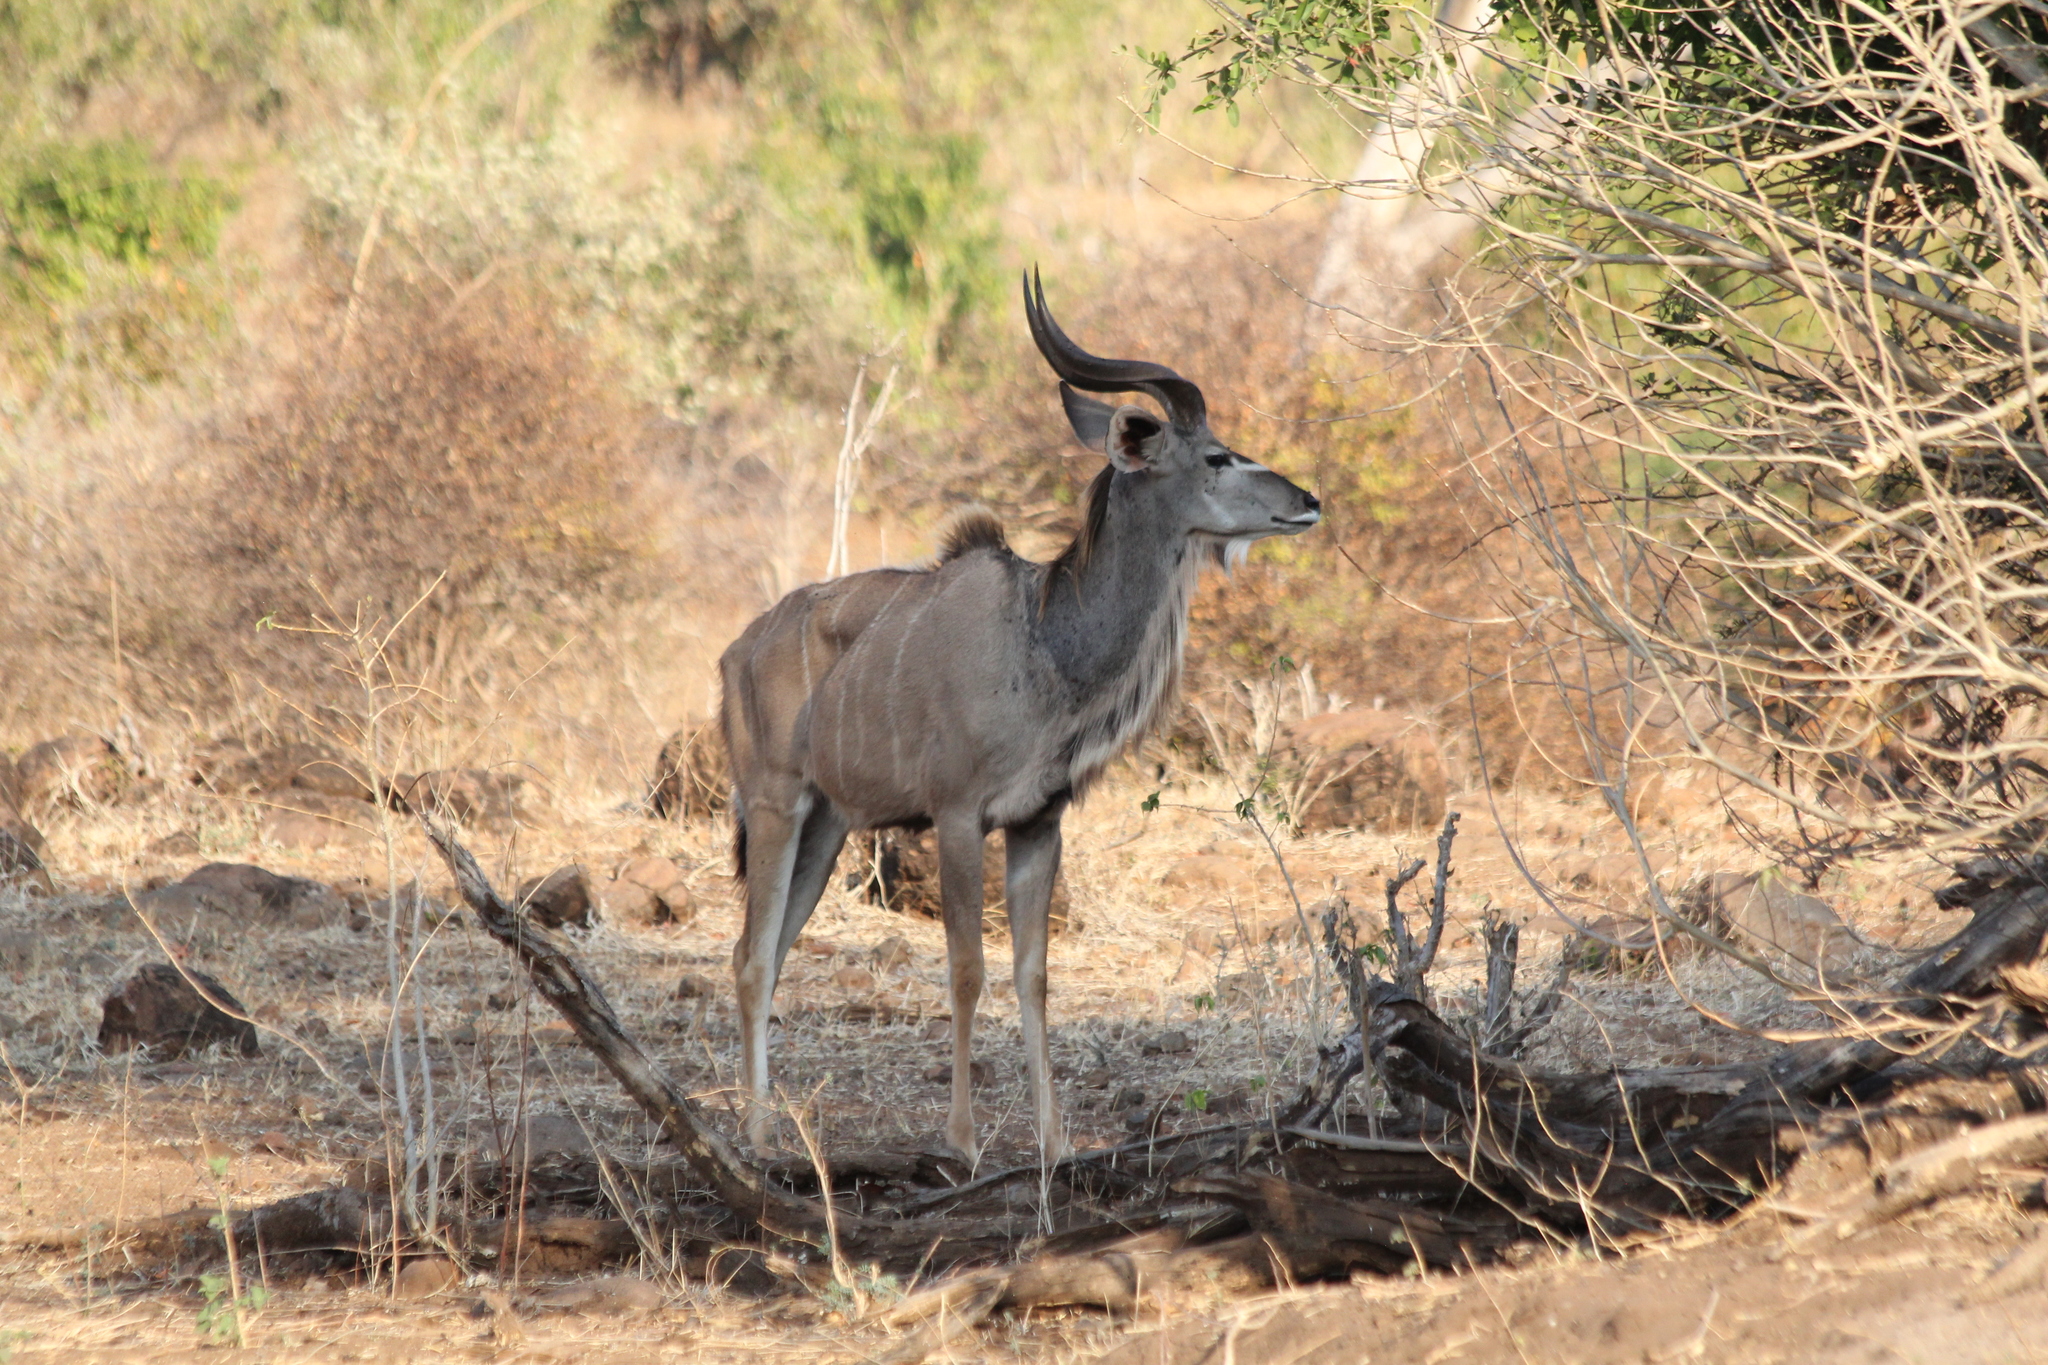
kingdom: Animalia
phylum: Chordata
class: Mammalia
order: Artiodactyla
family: Bovidae
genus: Tragelaphus
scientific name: Tragelaphus strepsiceros
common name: Greater kudu
